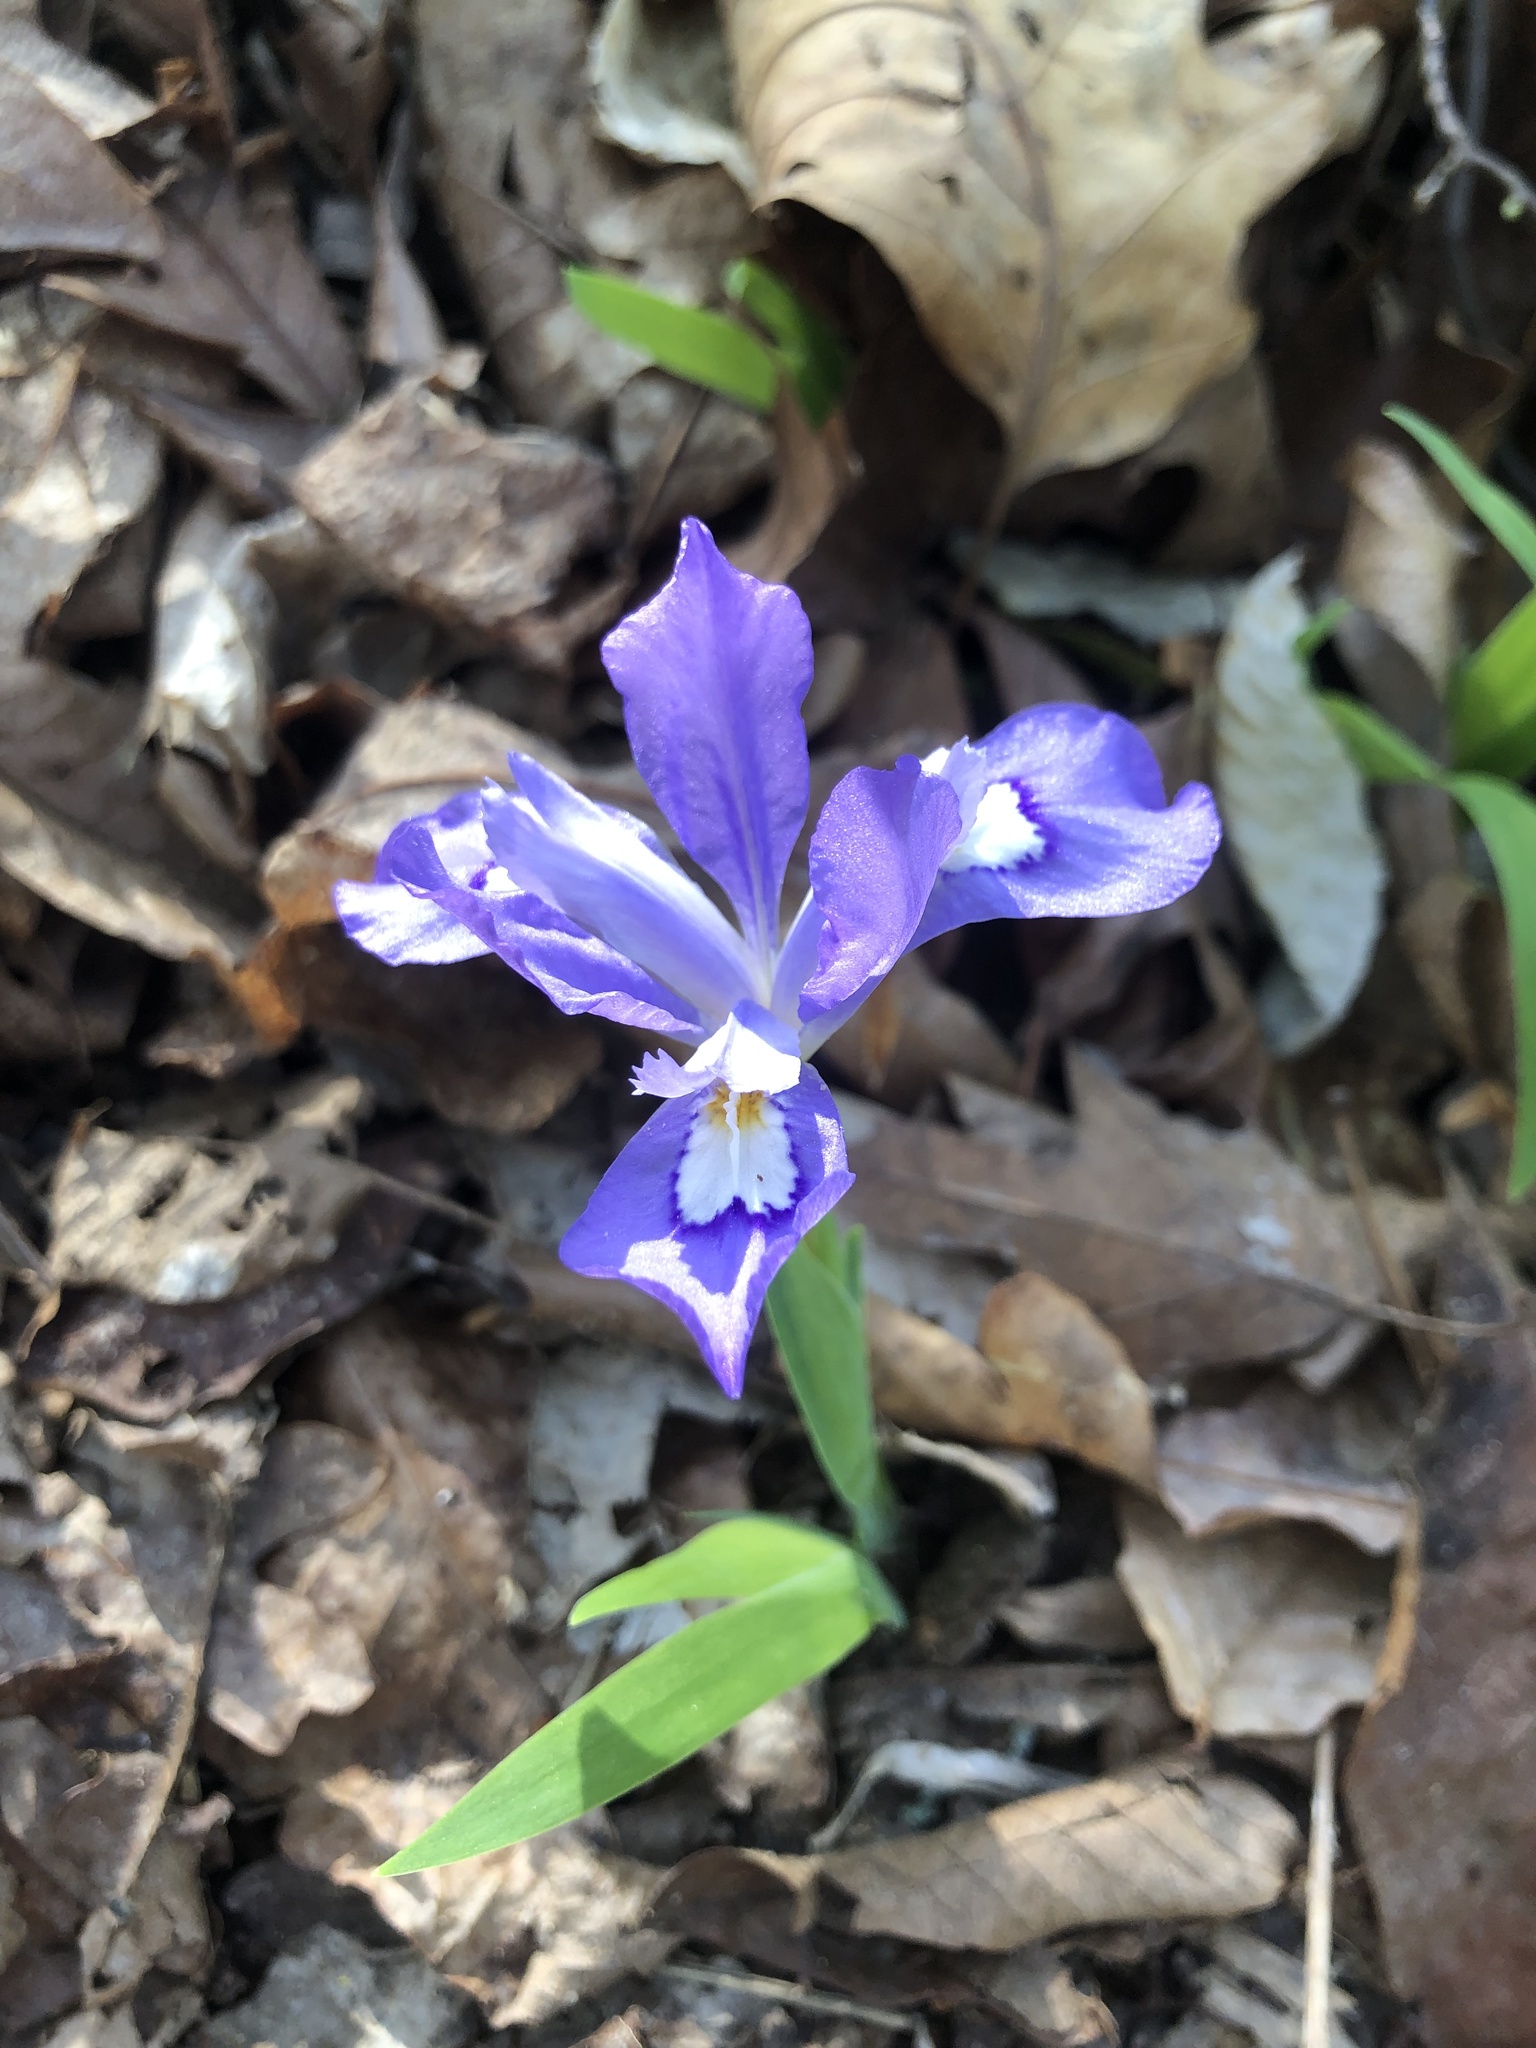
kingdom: Plantae
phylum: Tracheophyta
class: Liliopsida
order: Asparagales
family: Iridaceae
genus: Iris
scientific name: Iris cristata
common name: Crested iris
